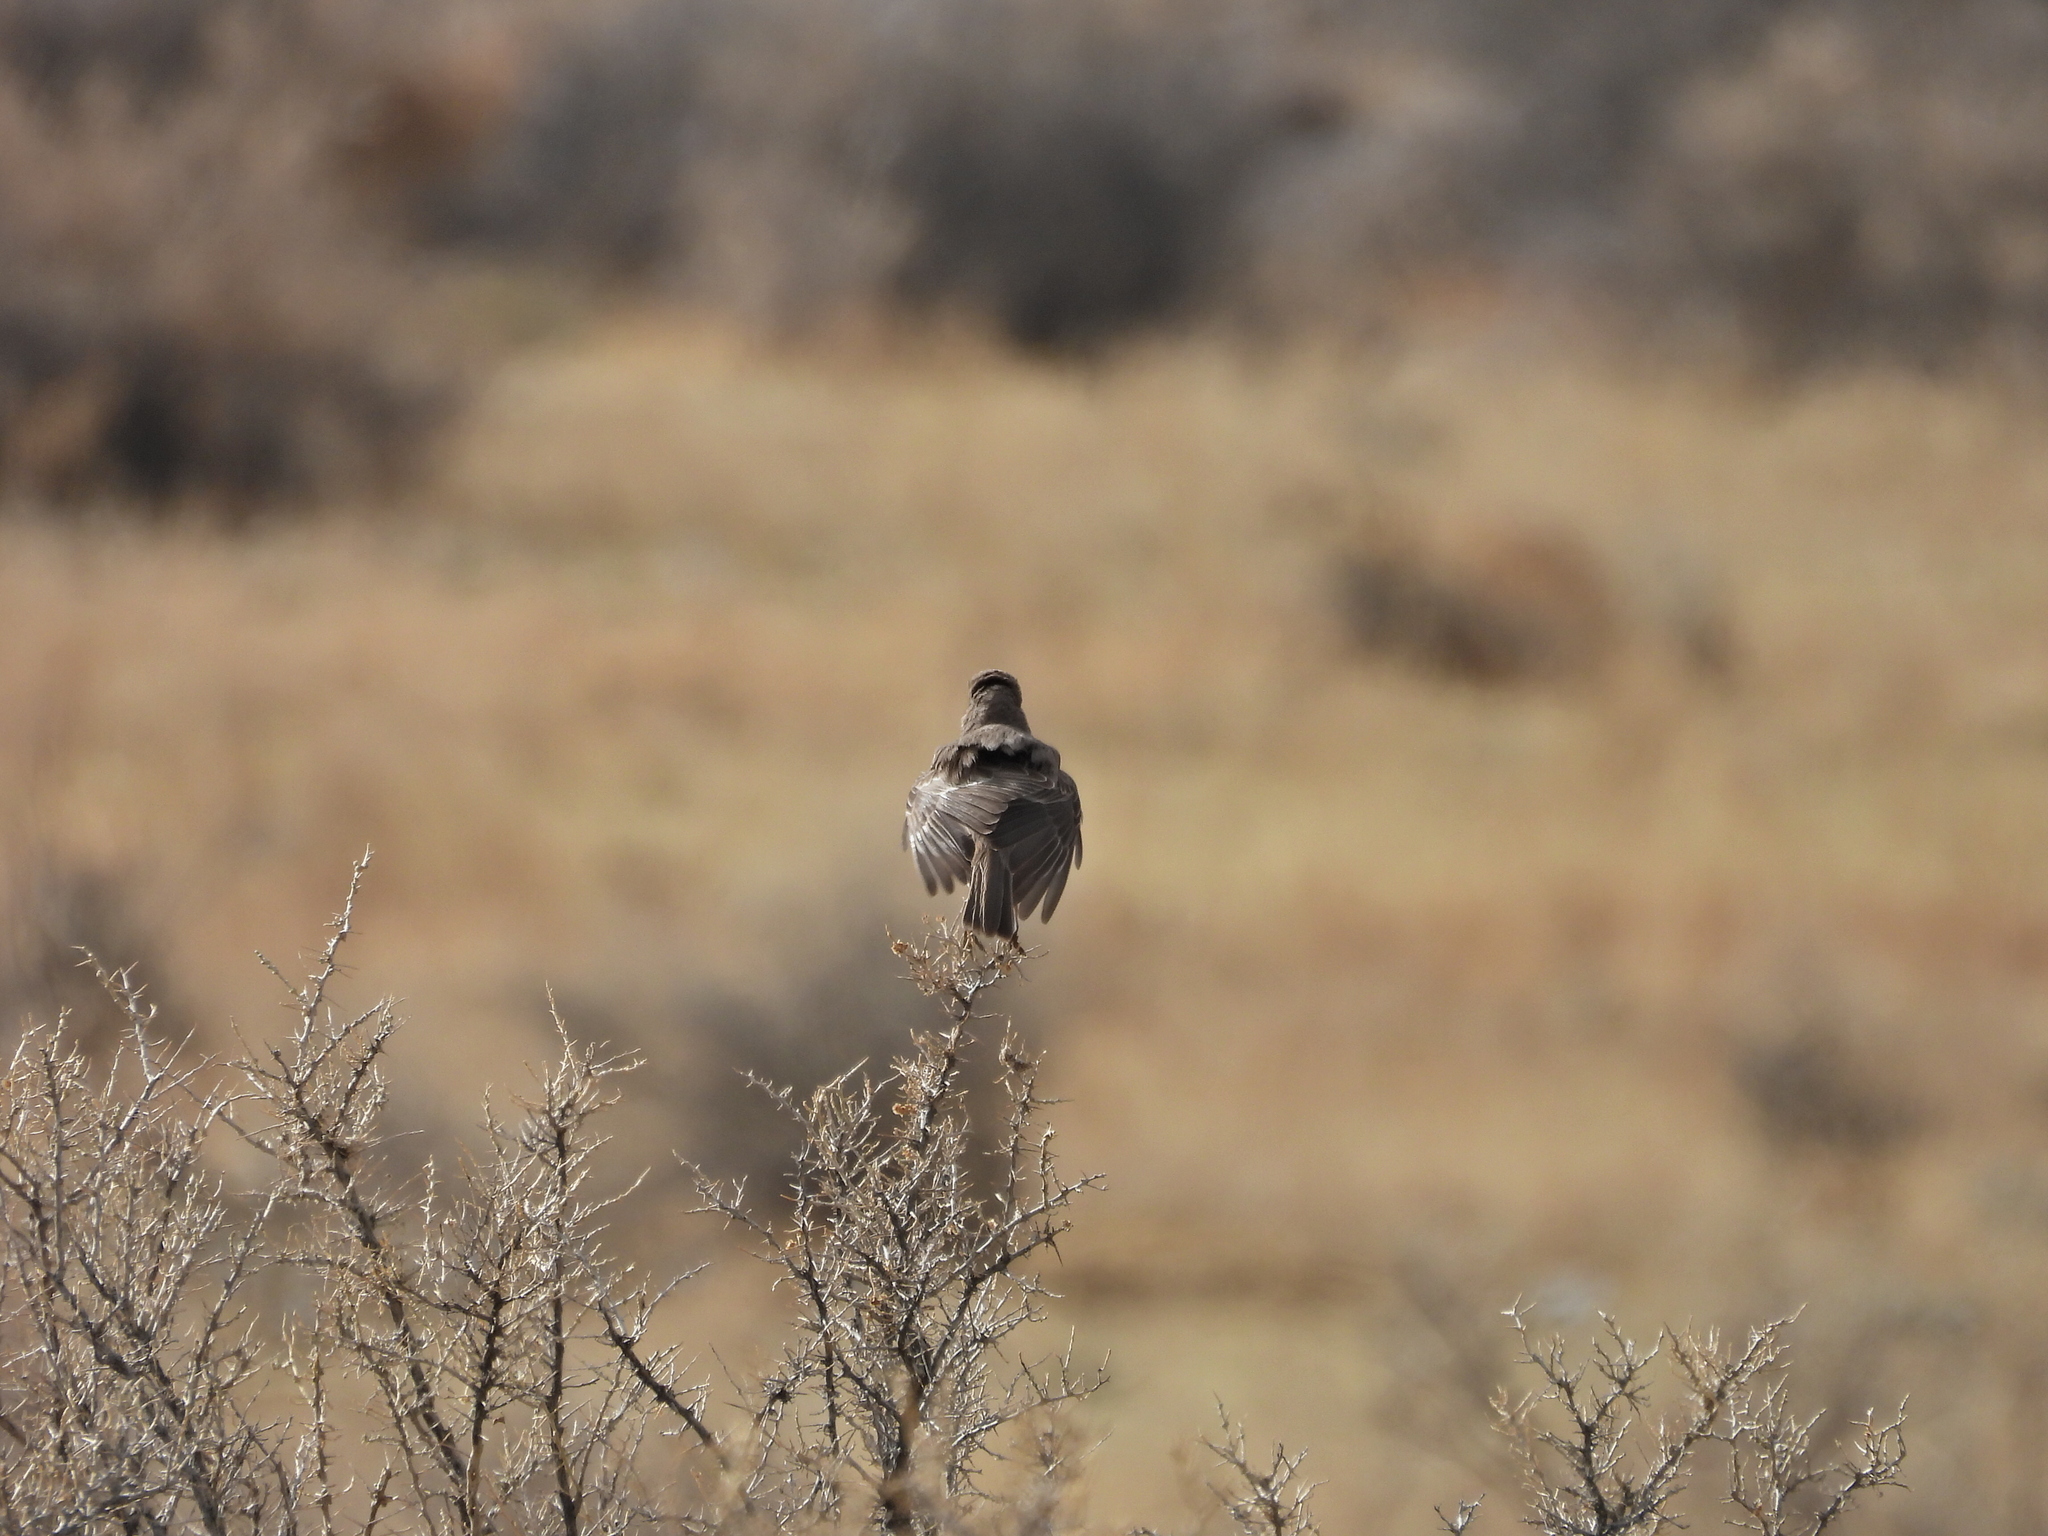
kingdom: Animalia
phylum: Chordata
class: Aves
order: Passeriformes
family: Mimidae
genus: Oreoscoptes
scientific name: Oreoscoptes montanus
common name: Sage thrasher
